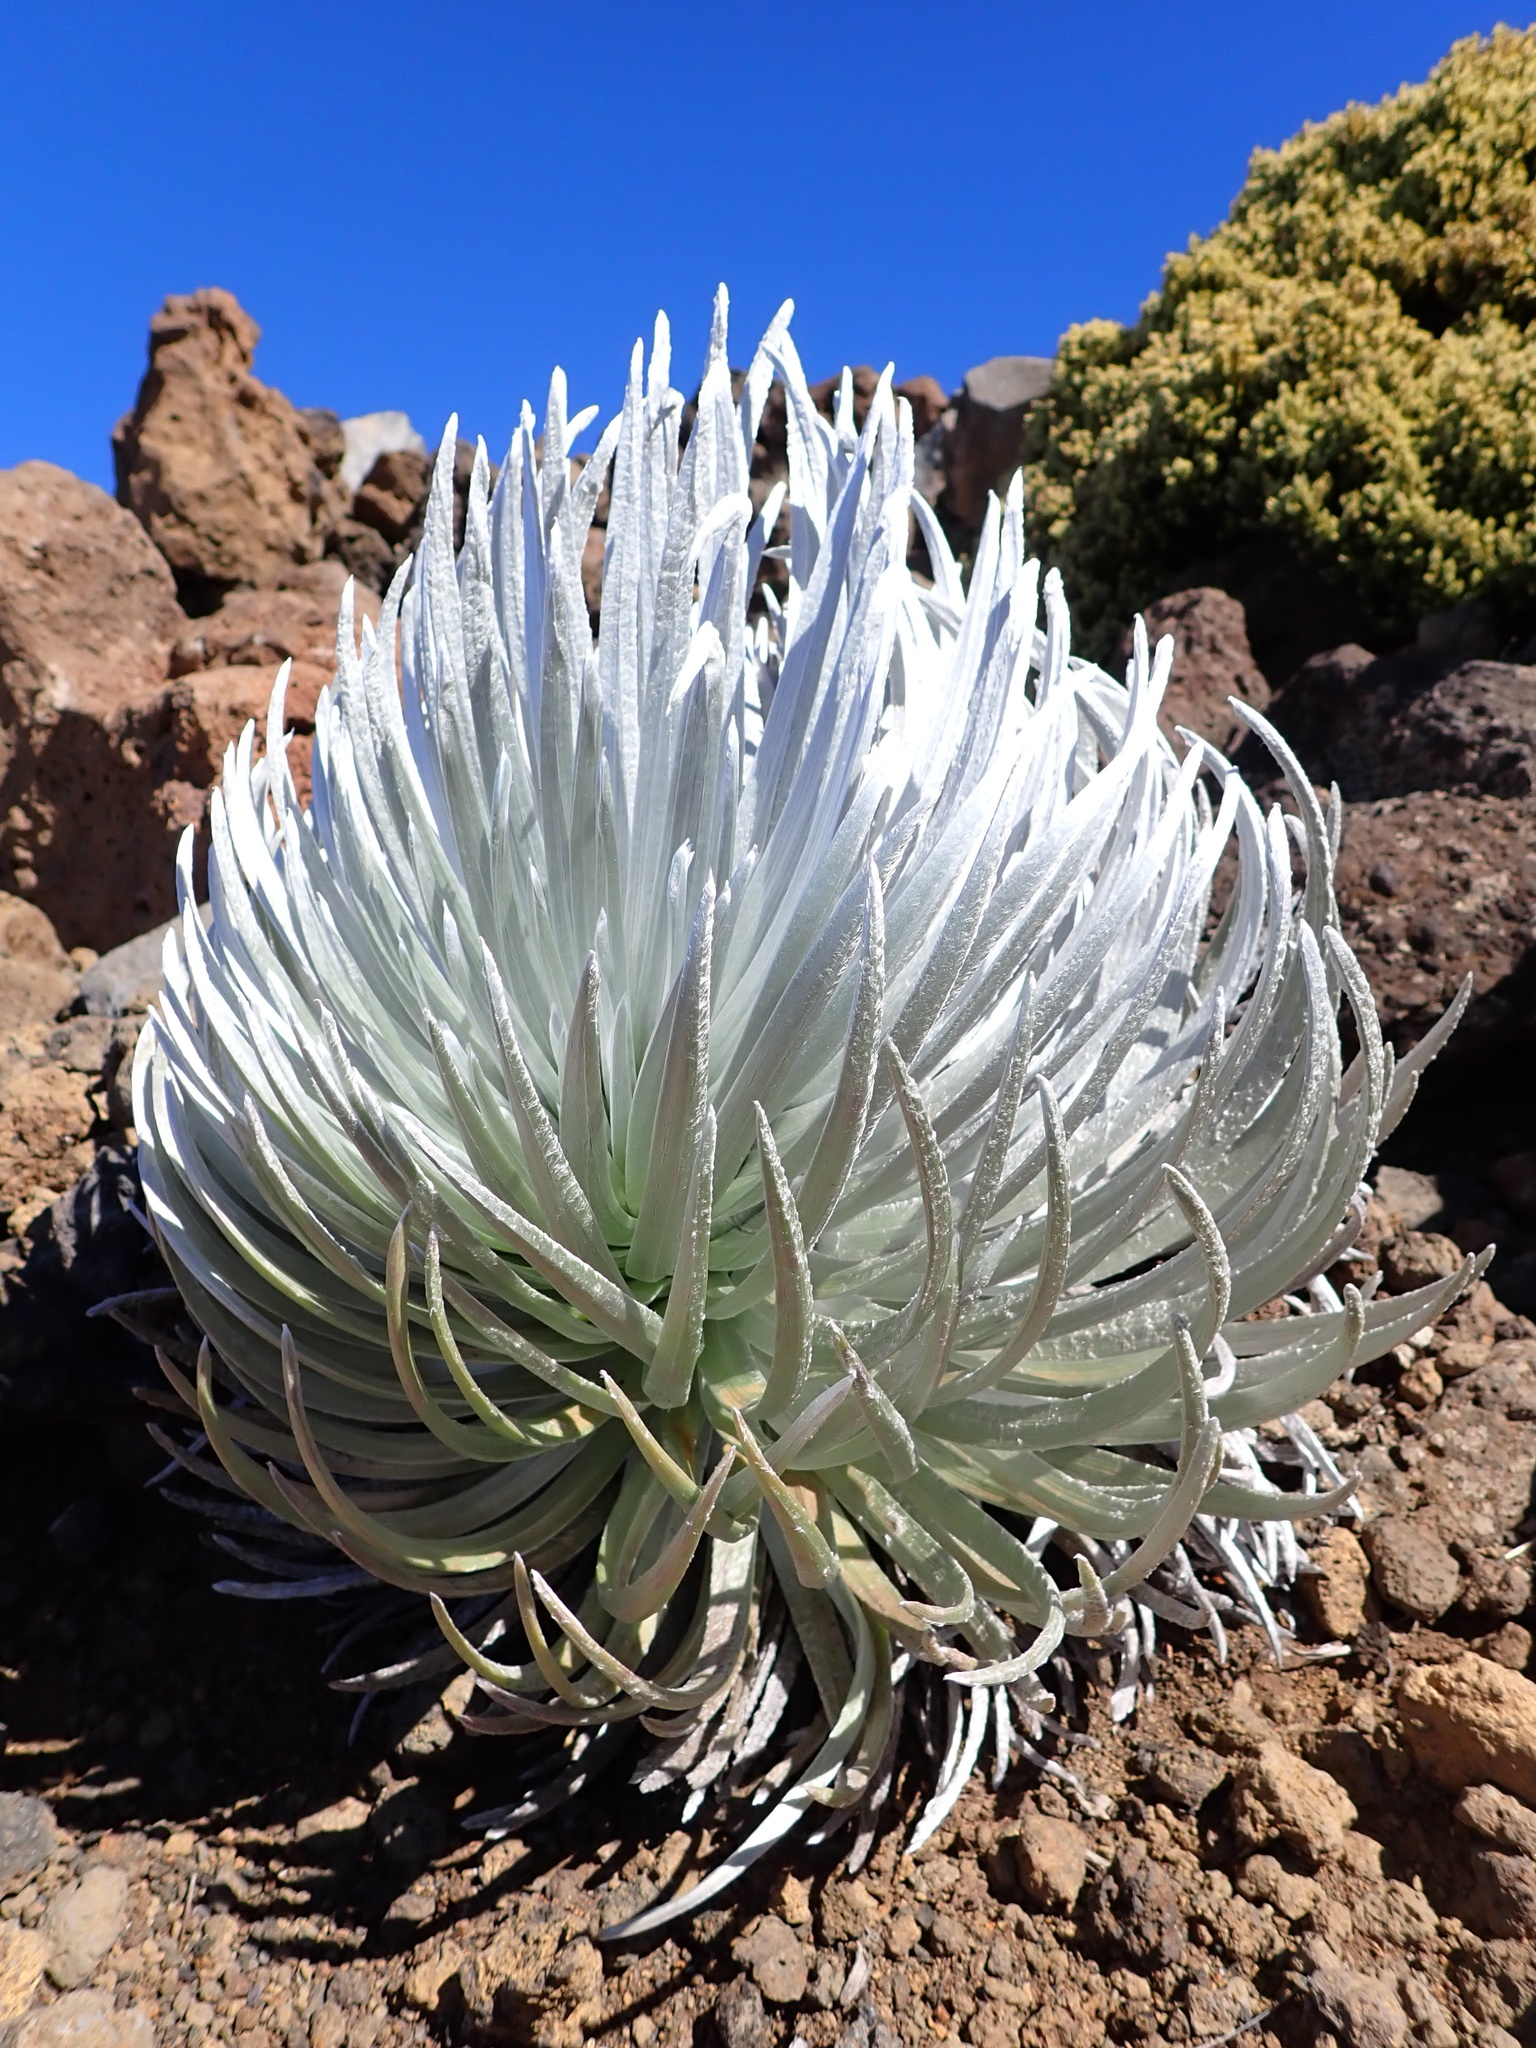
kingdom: Plantae
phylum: Tracheophyta
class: Magnoliopsida
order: Asterales
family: Asteraceae
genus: Argyroxiphium
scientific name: Argyroxiphium sandwicense
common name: Silversword
